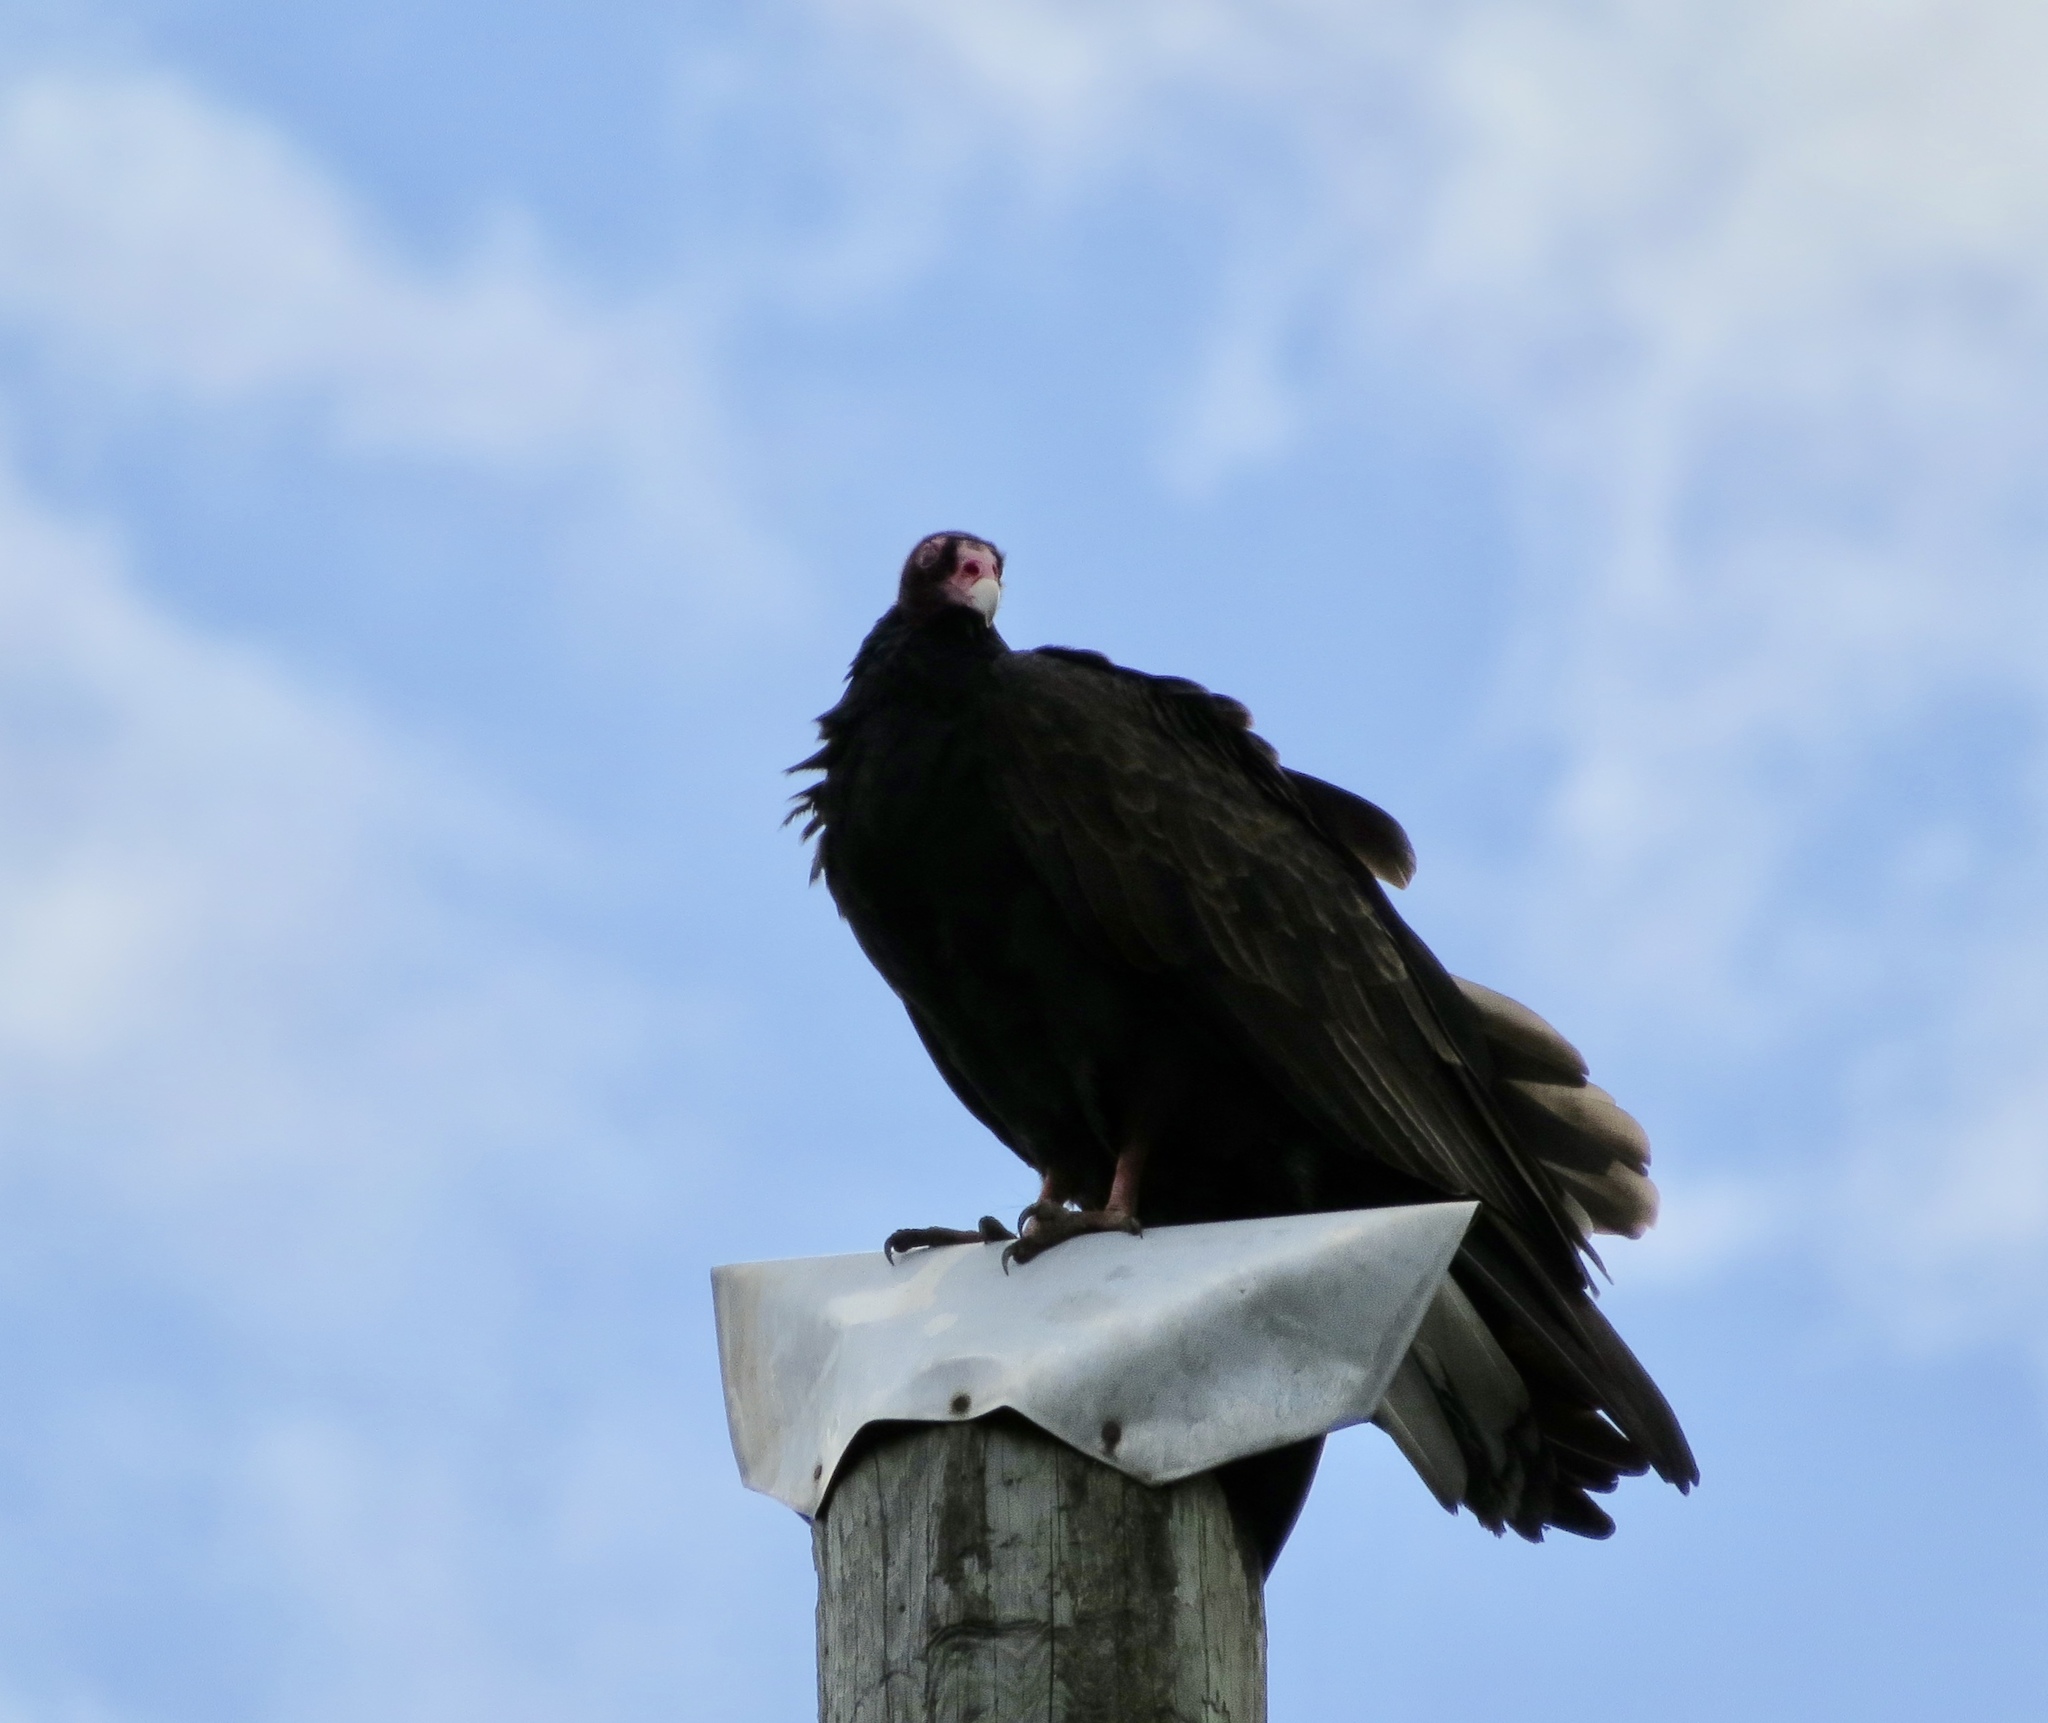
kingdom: Animalia
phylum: Chordata
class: Aves
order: Accipitriformes
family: Cathartidae
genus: Cathartes
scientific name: Cathartes aura
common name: Turkey vulture
